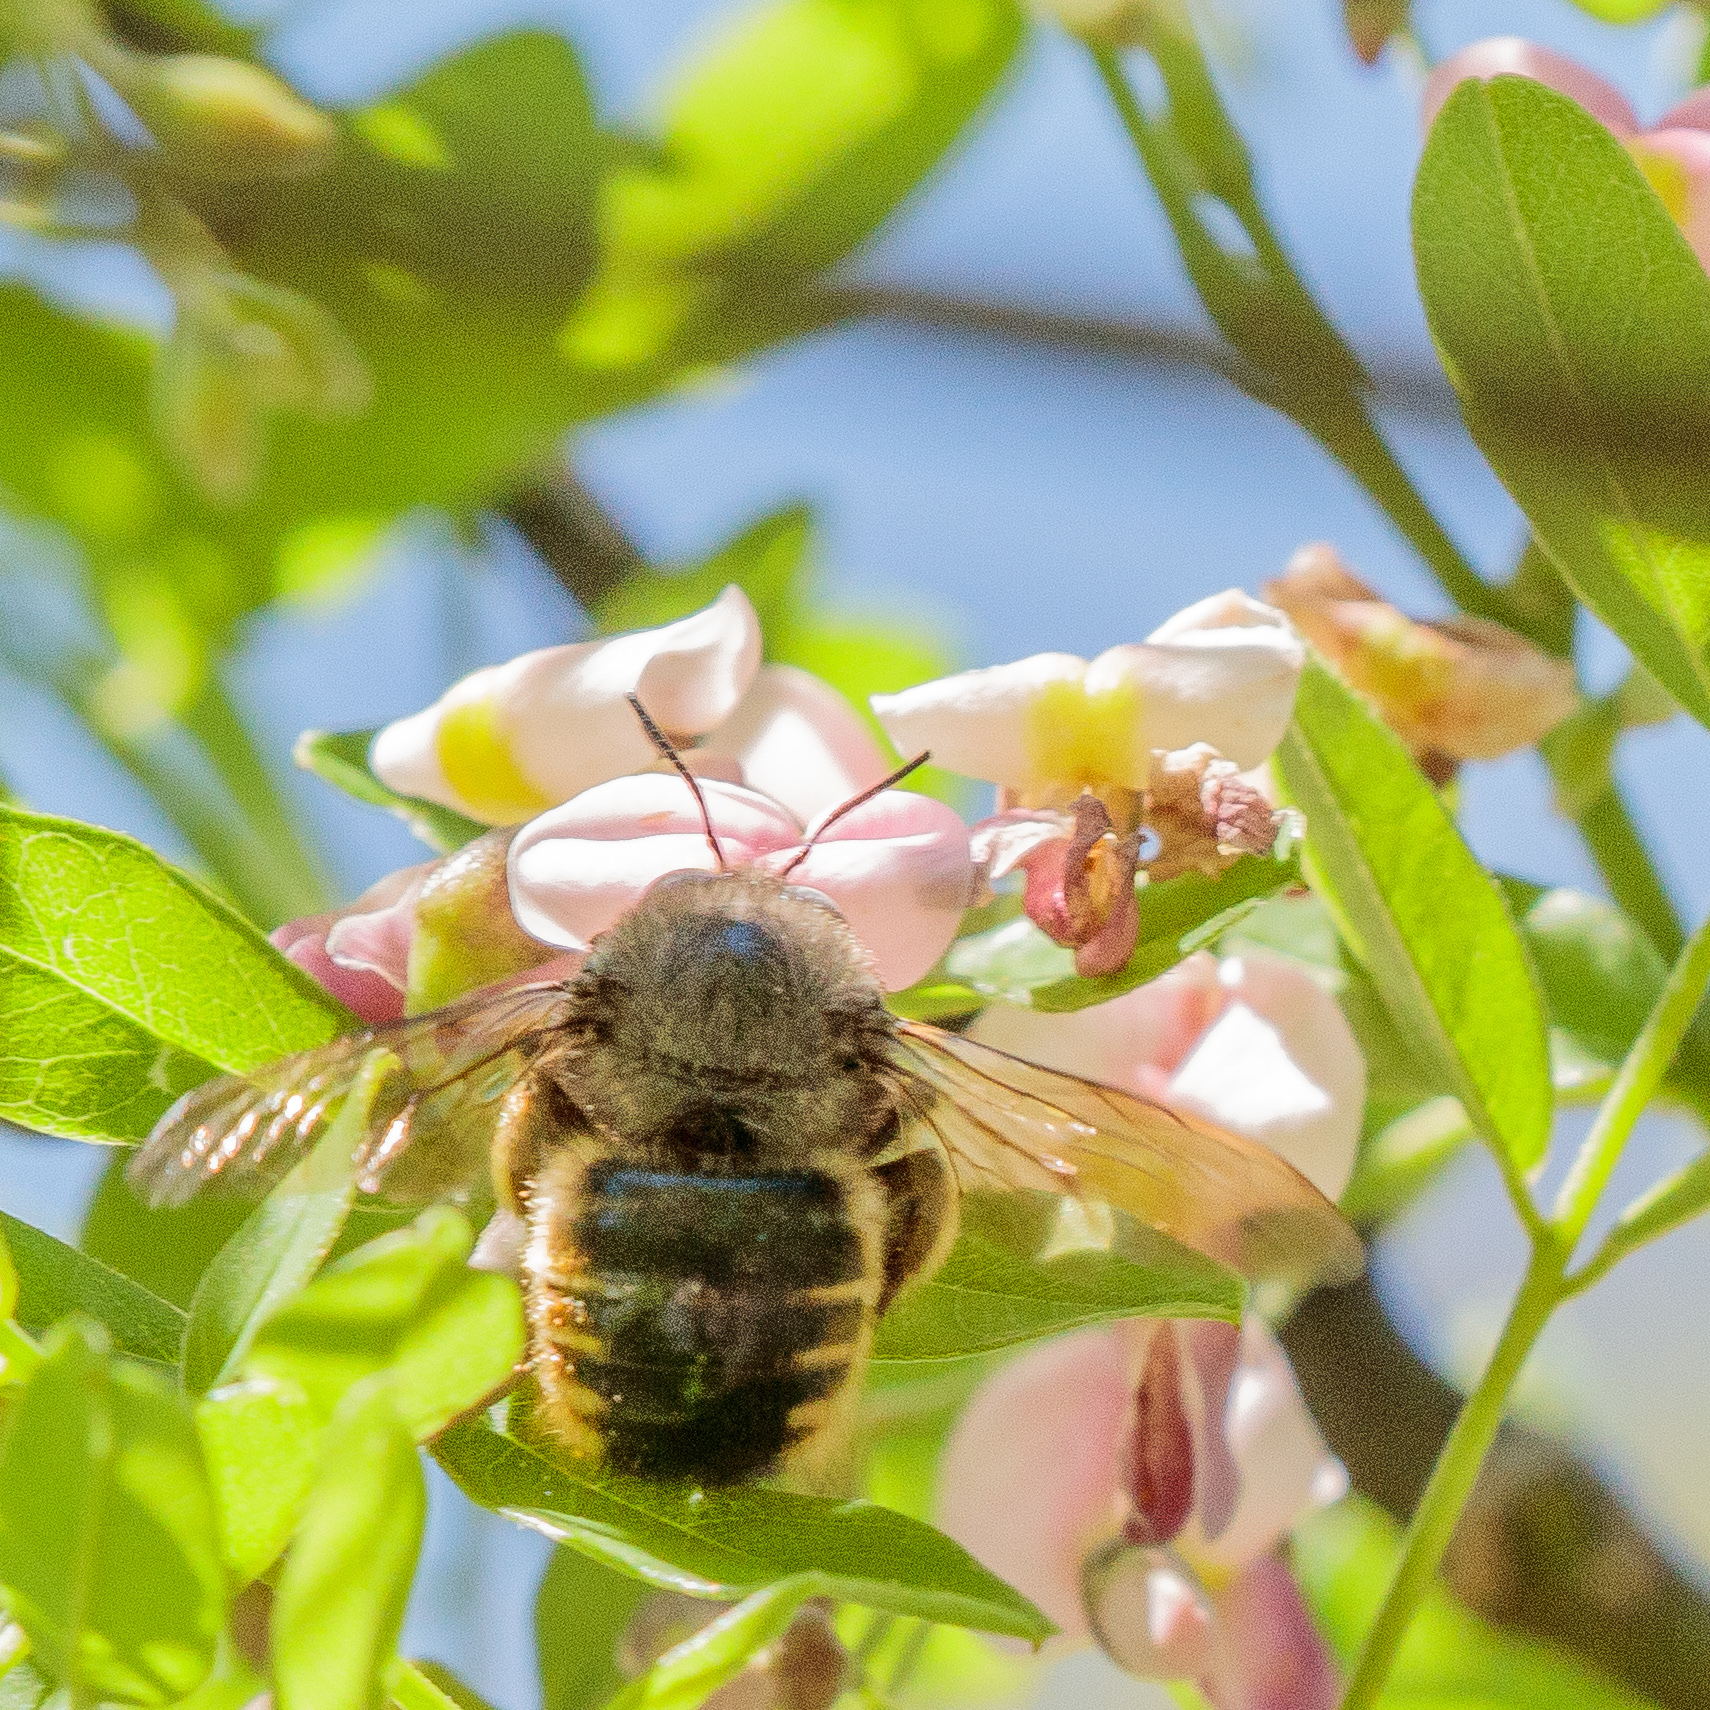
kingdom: Animalia
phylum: Arthropoda
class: Insecta
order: Hymenoptera
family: Apidae
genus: Xylocopa
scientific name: Xylocopa tabaniformis
